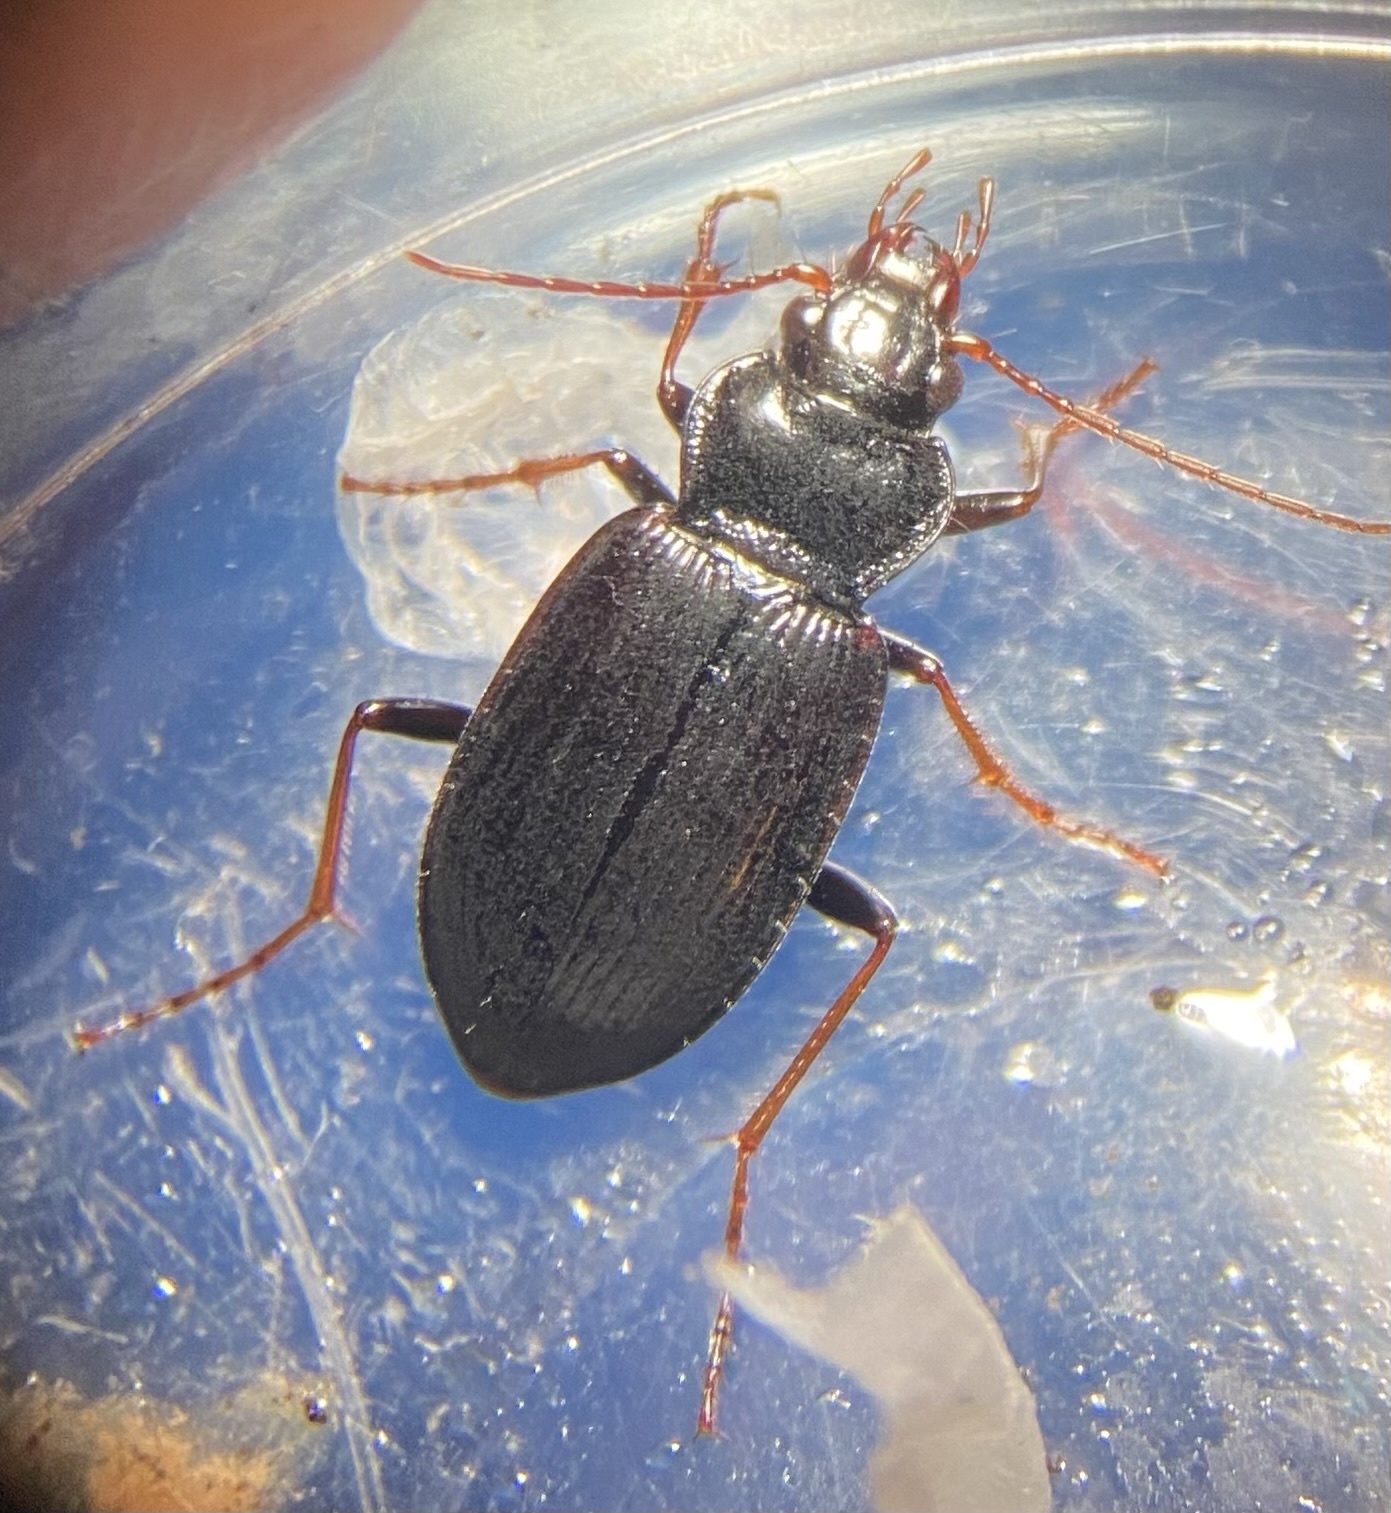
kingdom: Animalia
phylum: Arthropoda
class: Insecta
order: Coleoptera
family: Carabidae
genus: Nebria
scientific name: Nebria brevicollis
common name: Short-necked gazelle beetle
